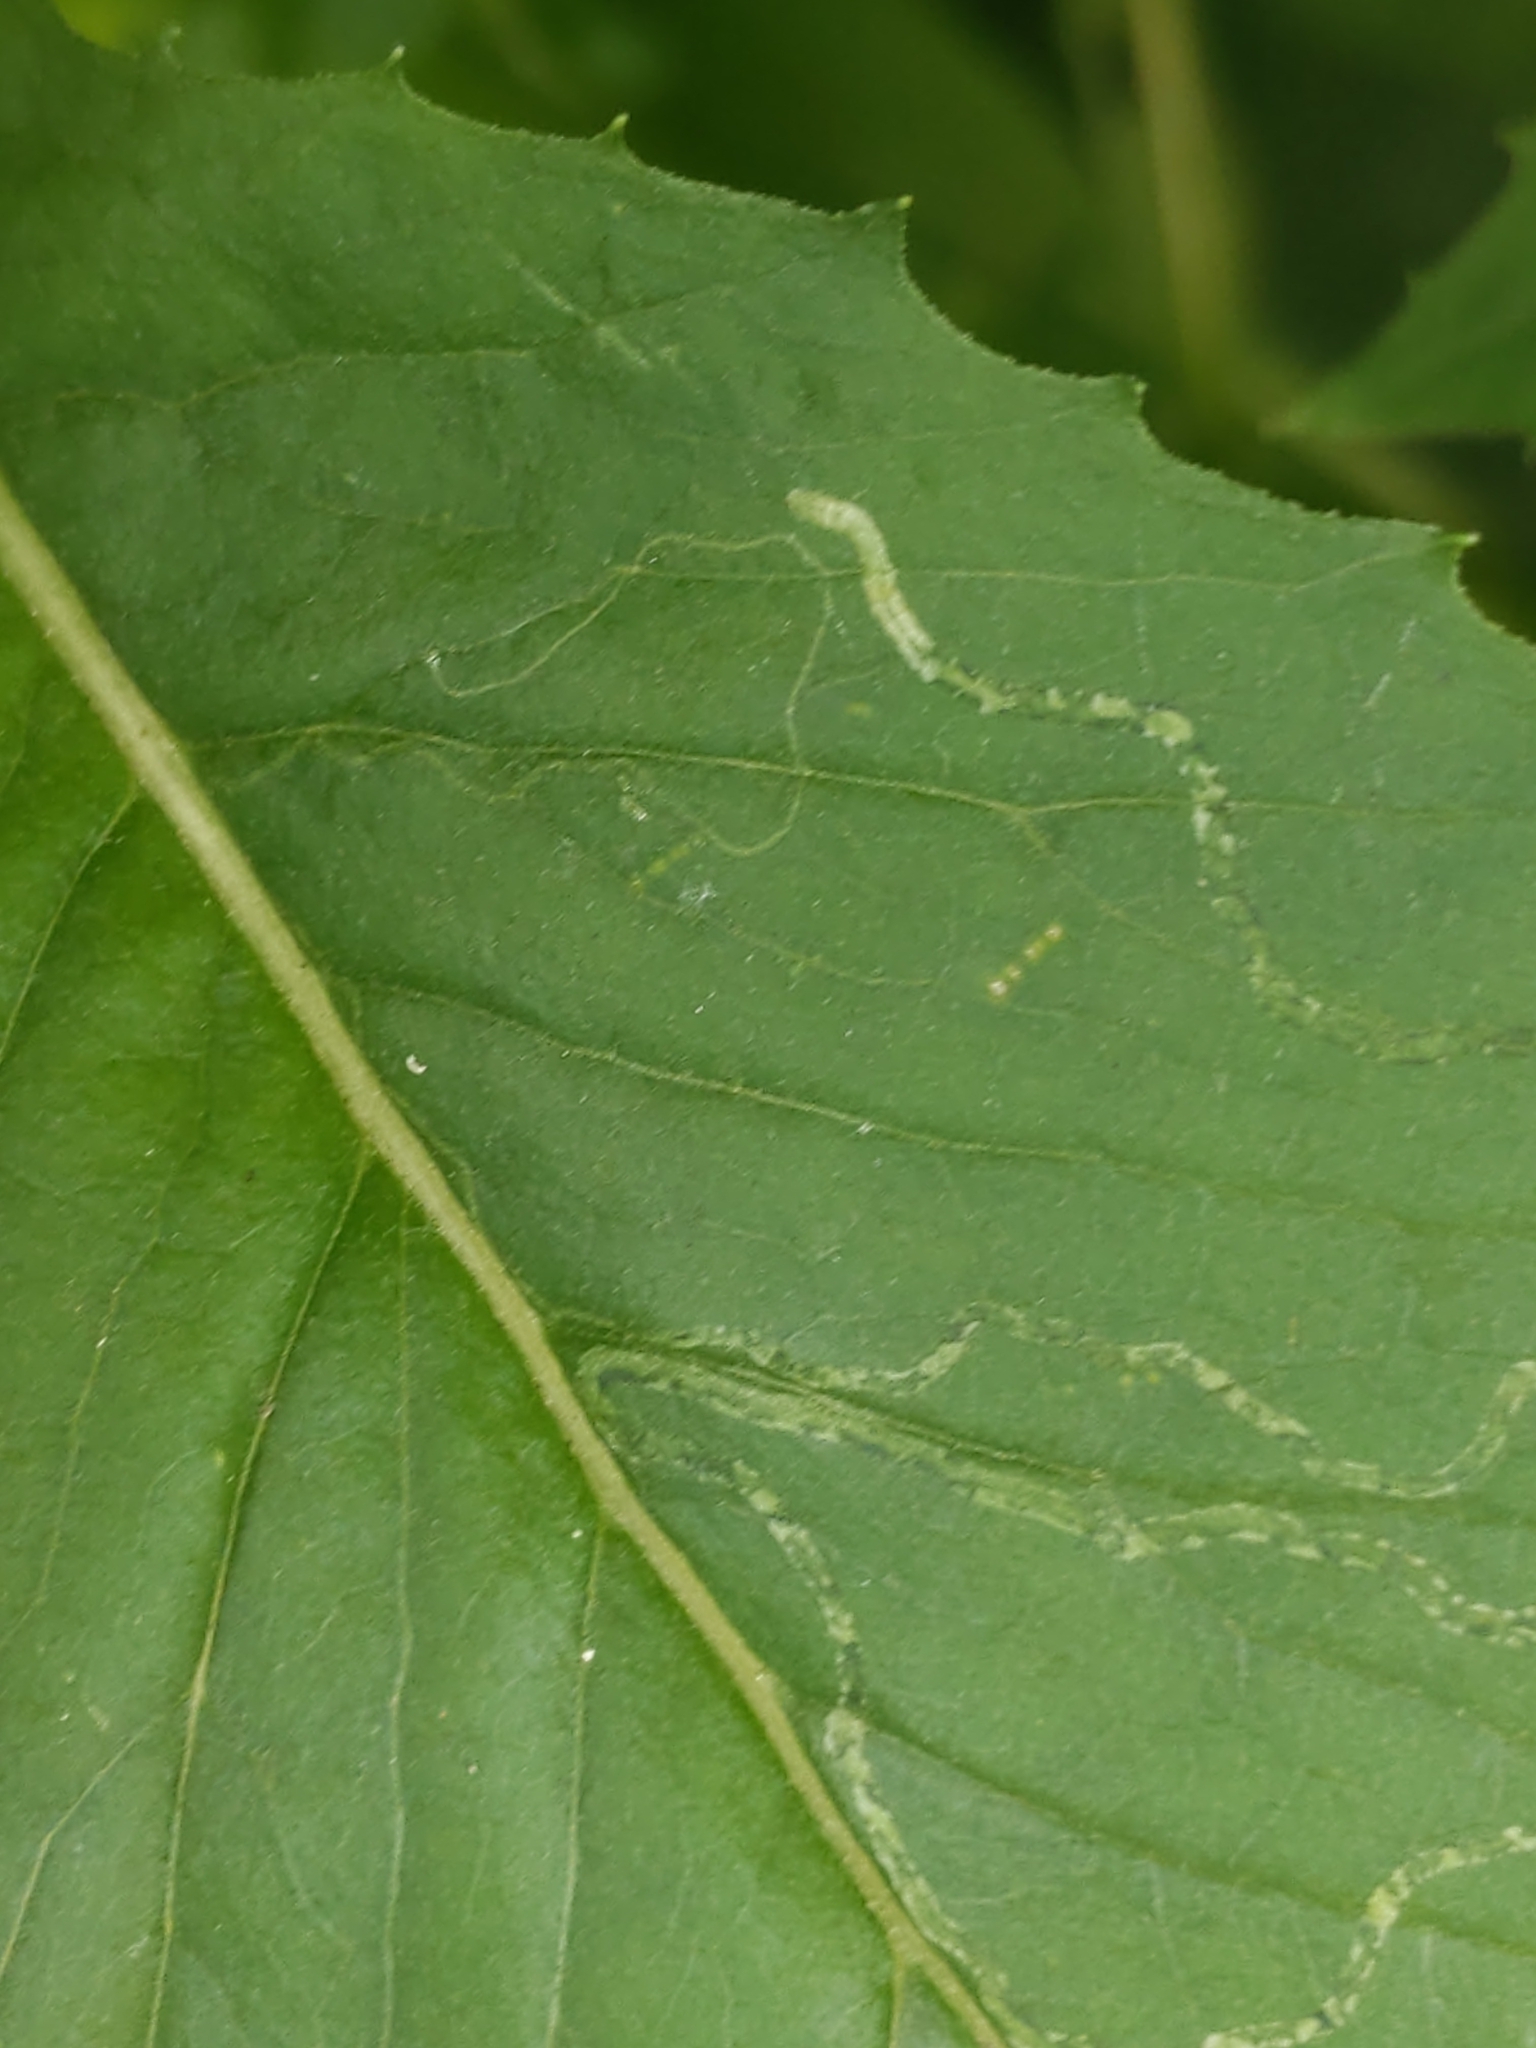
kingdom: Animalia
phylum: Arthropoda
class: Insecta
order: Lepidoptera
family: Gracillariidae
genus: Phyllocnistis
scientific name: Phyllocnistis insignis
